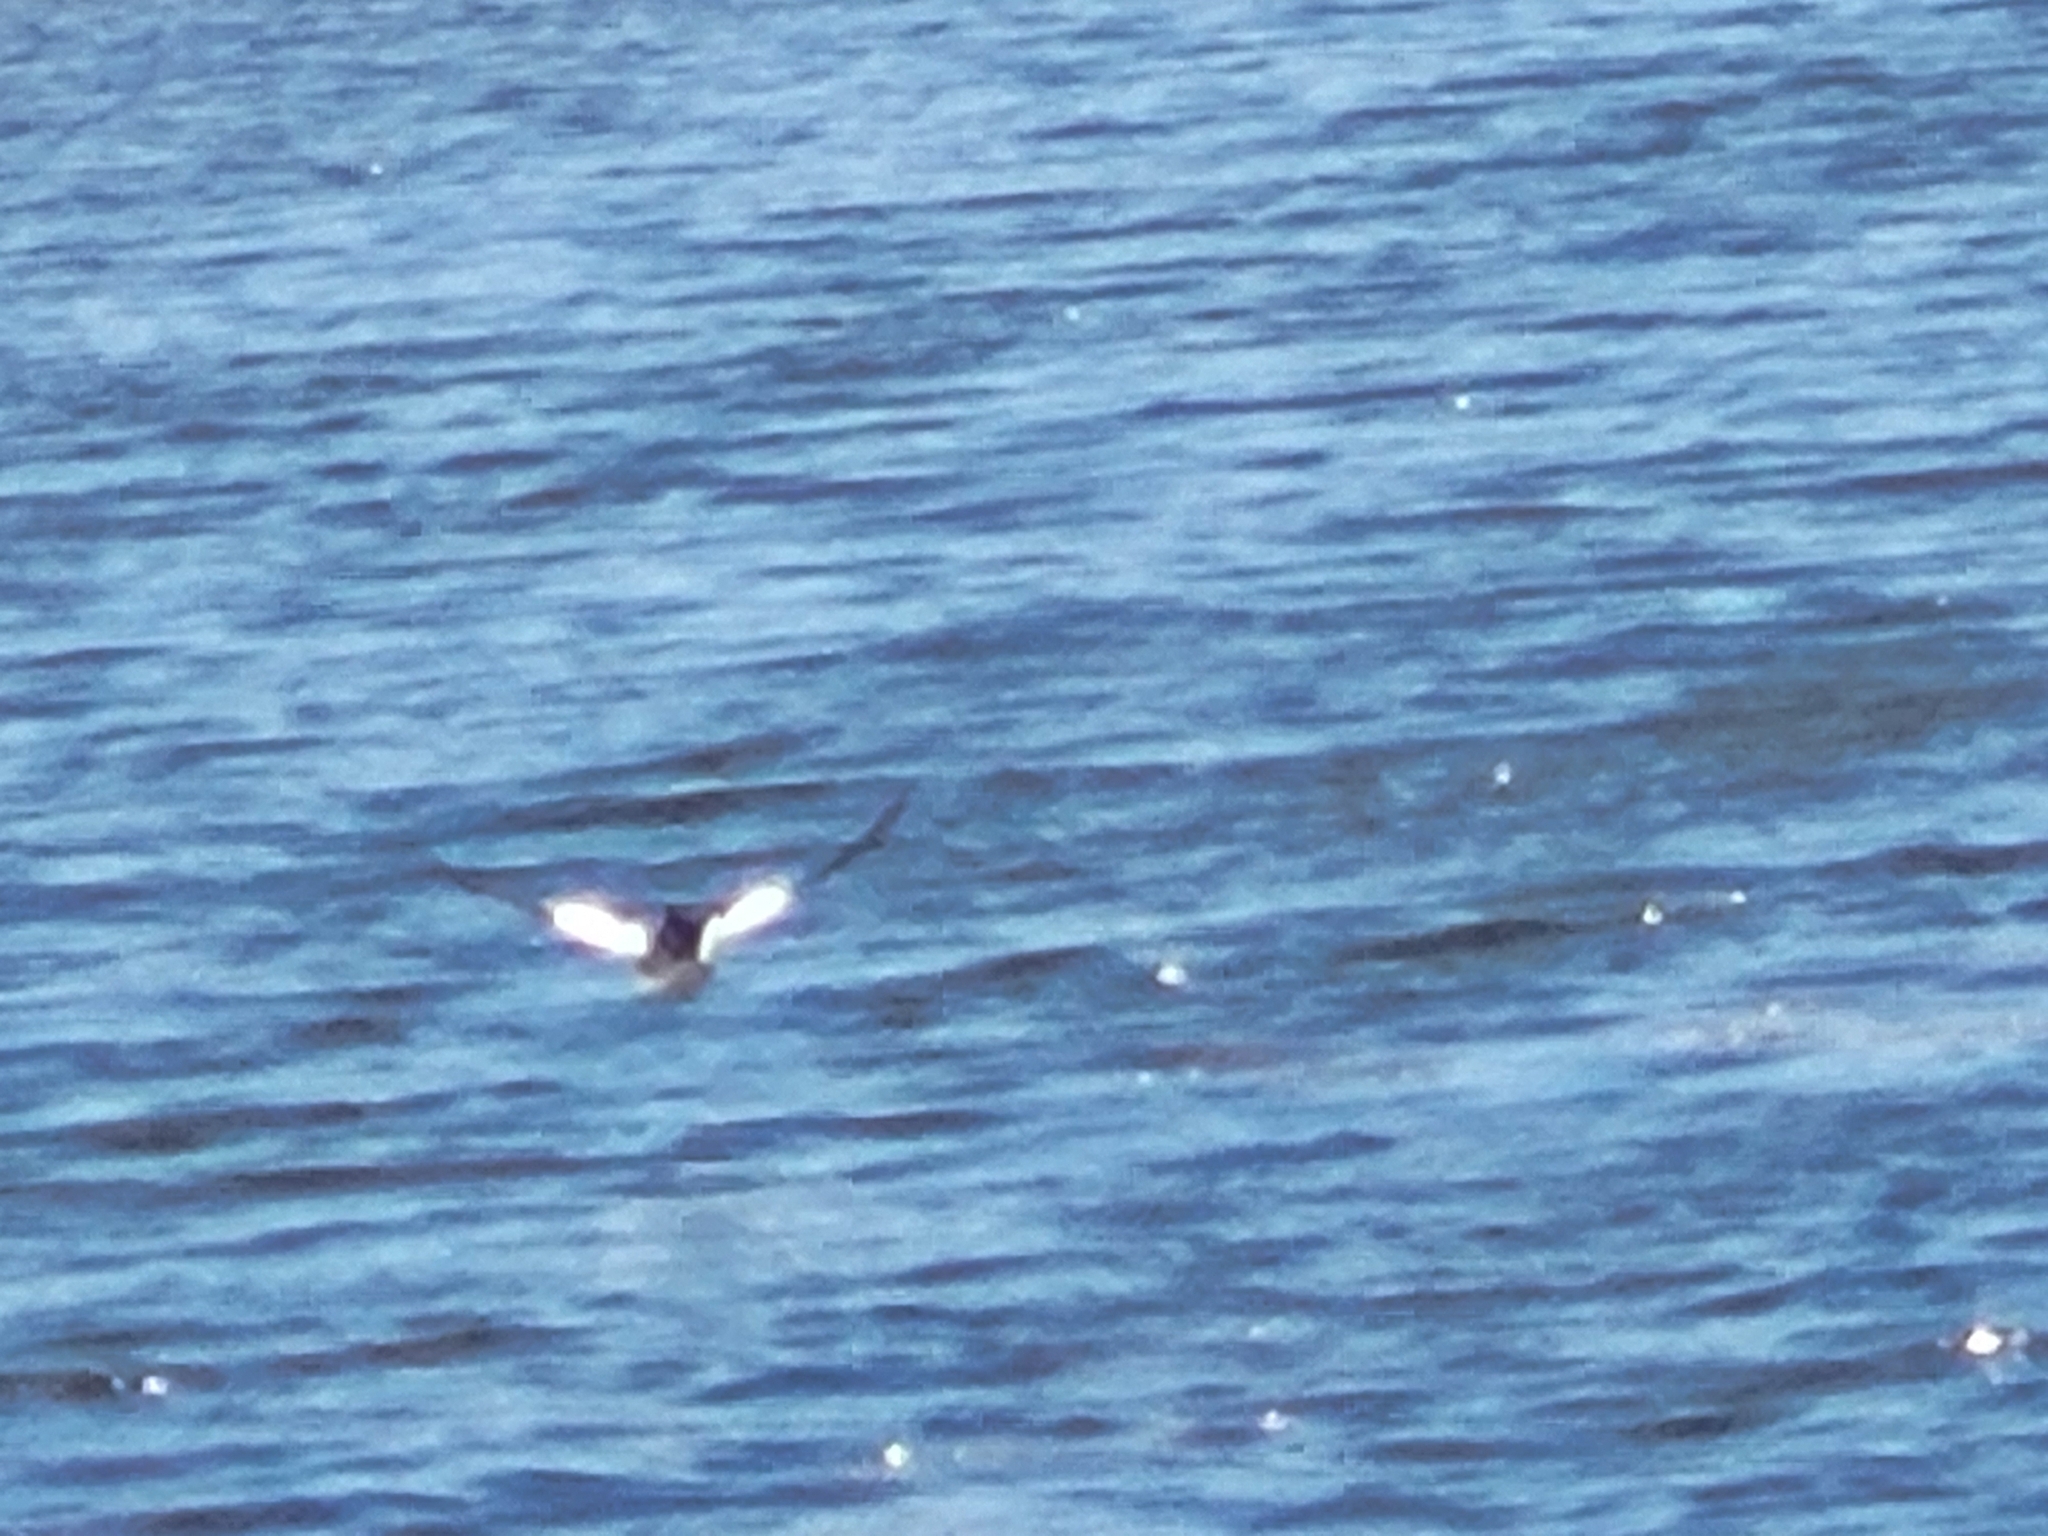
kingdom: Animalia
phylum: Chordata
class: Aves
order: Anseriformes
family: Anatidae
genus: Bucephala
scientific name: Bucephala clangula
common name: Common goldeneye
